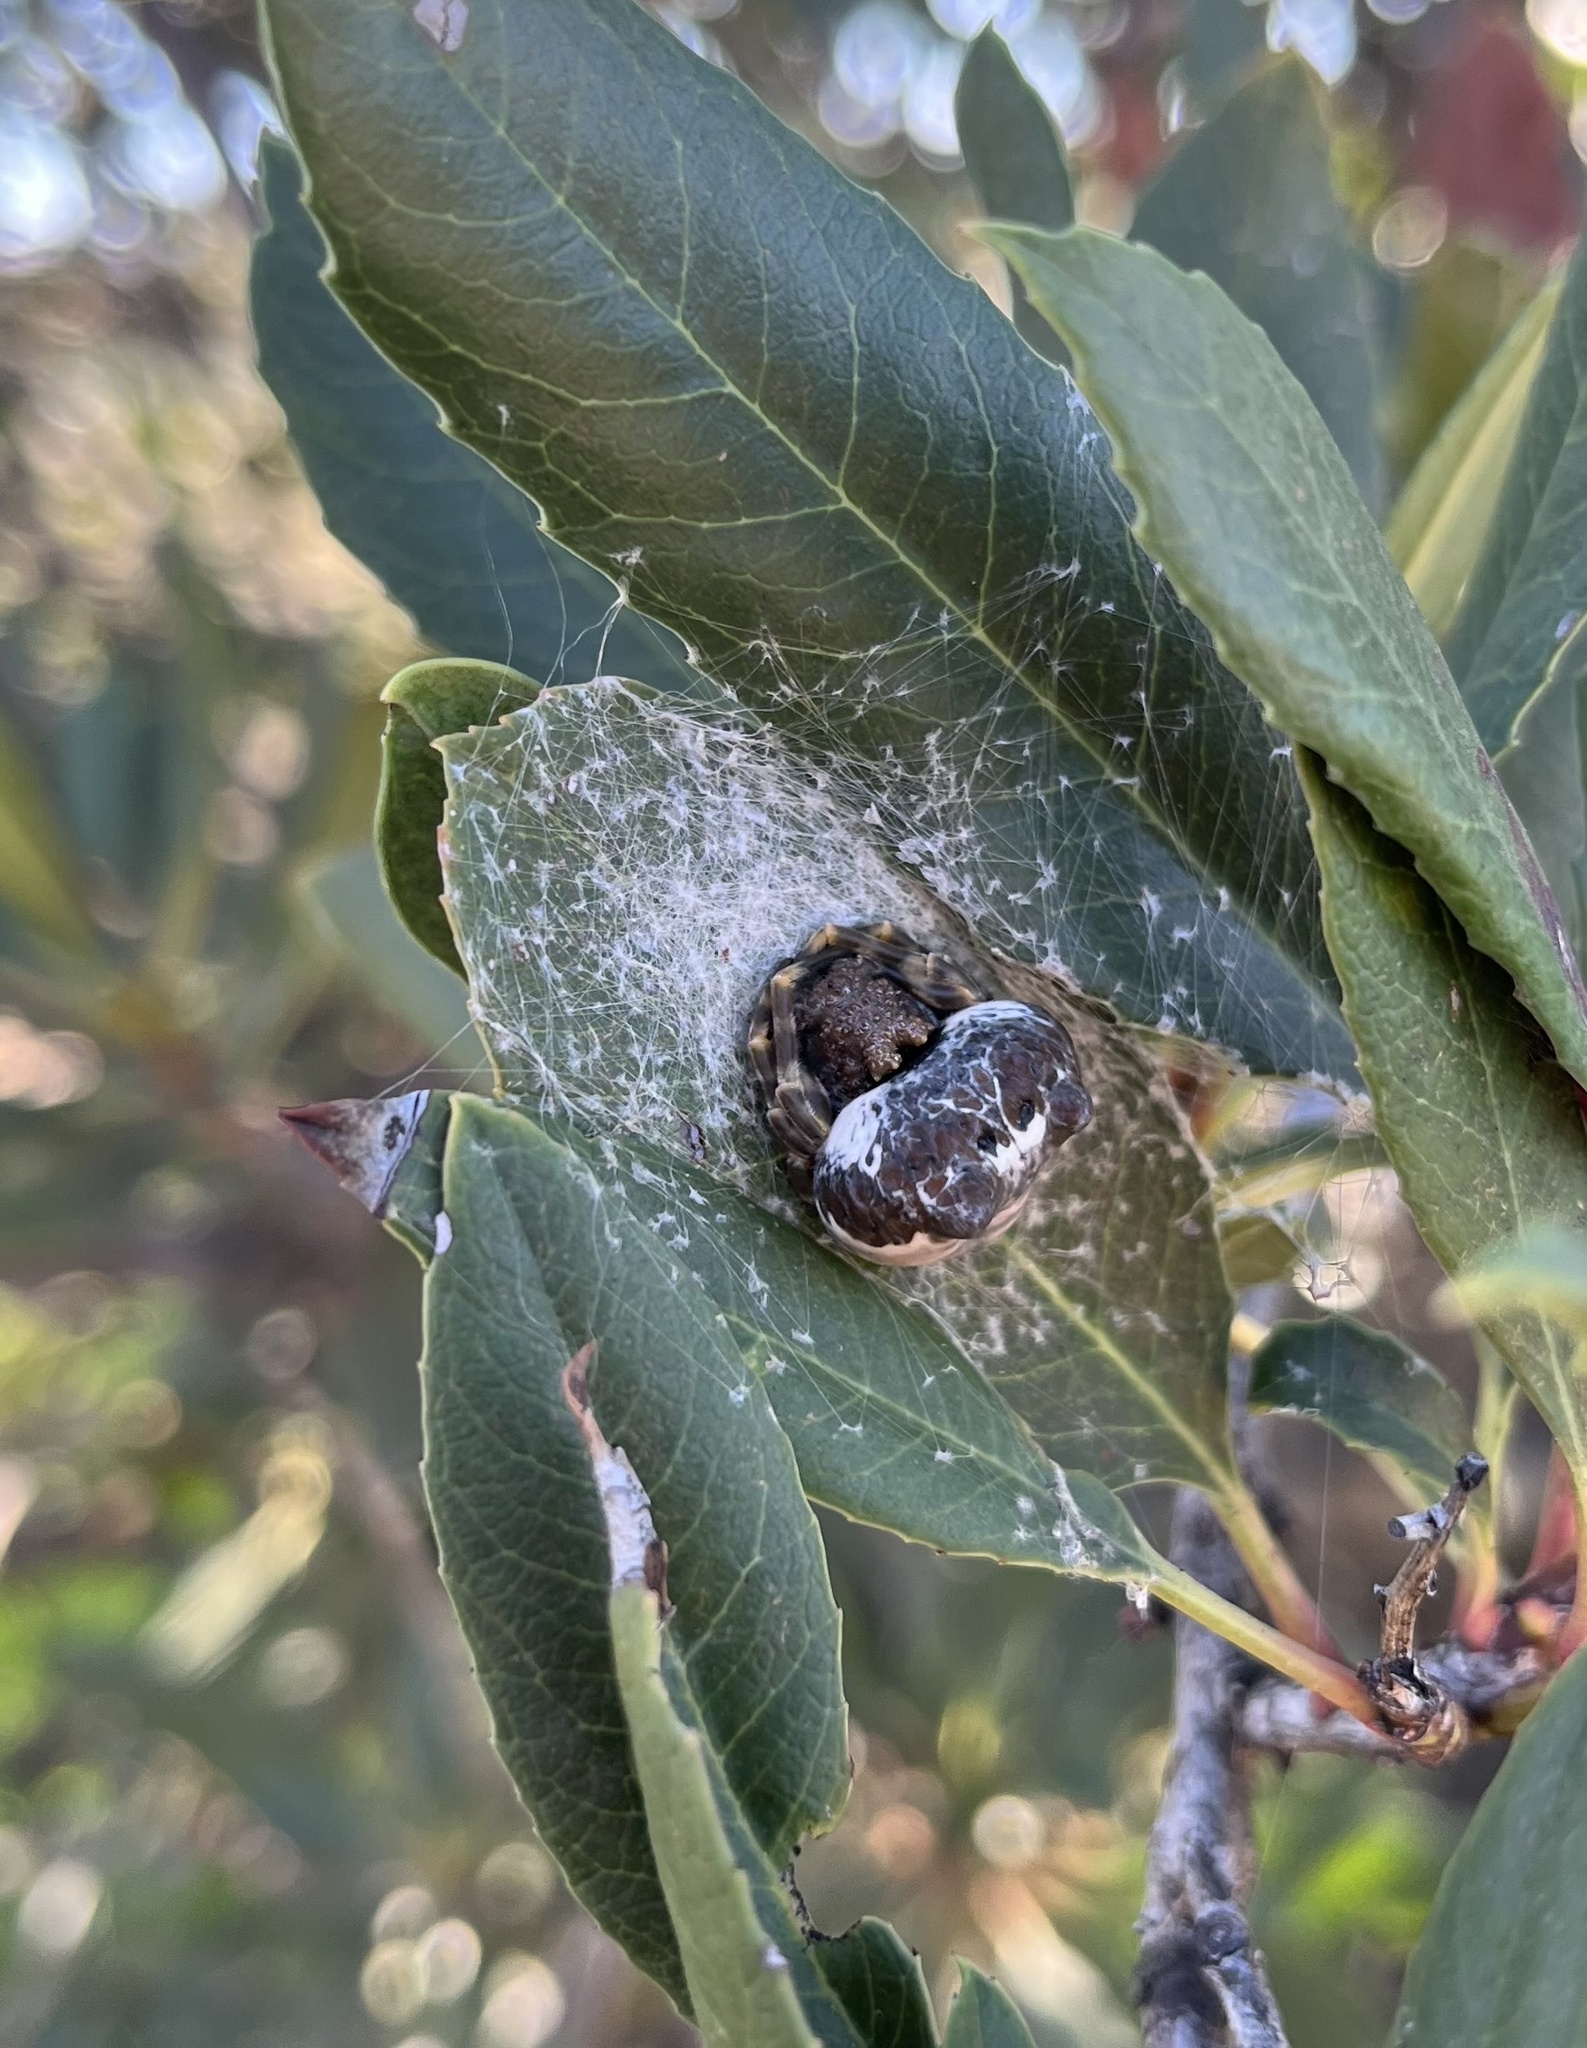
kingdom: Animalia
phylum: Arthropoda
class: Arachnida
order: Araneae
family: Araneidae
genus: Mastophora
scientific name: Mastophora cornigera
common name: Orb weavers
